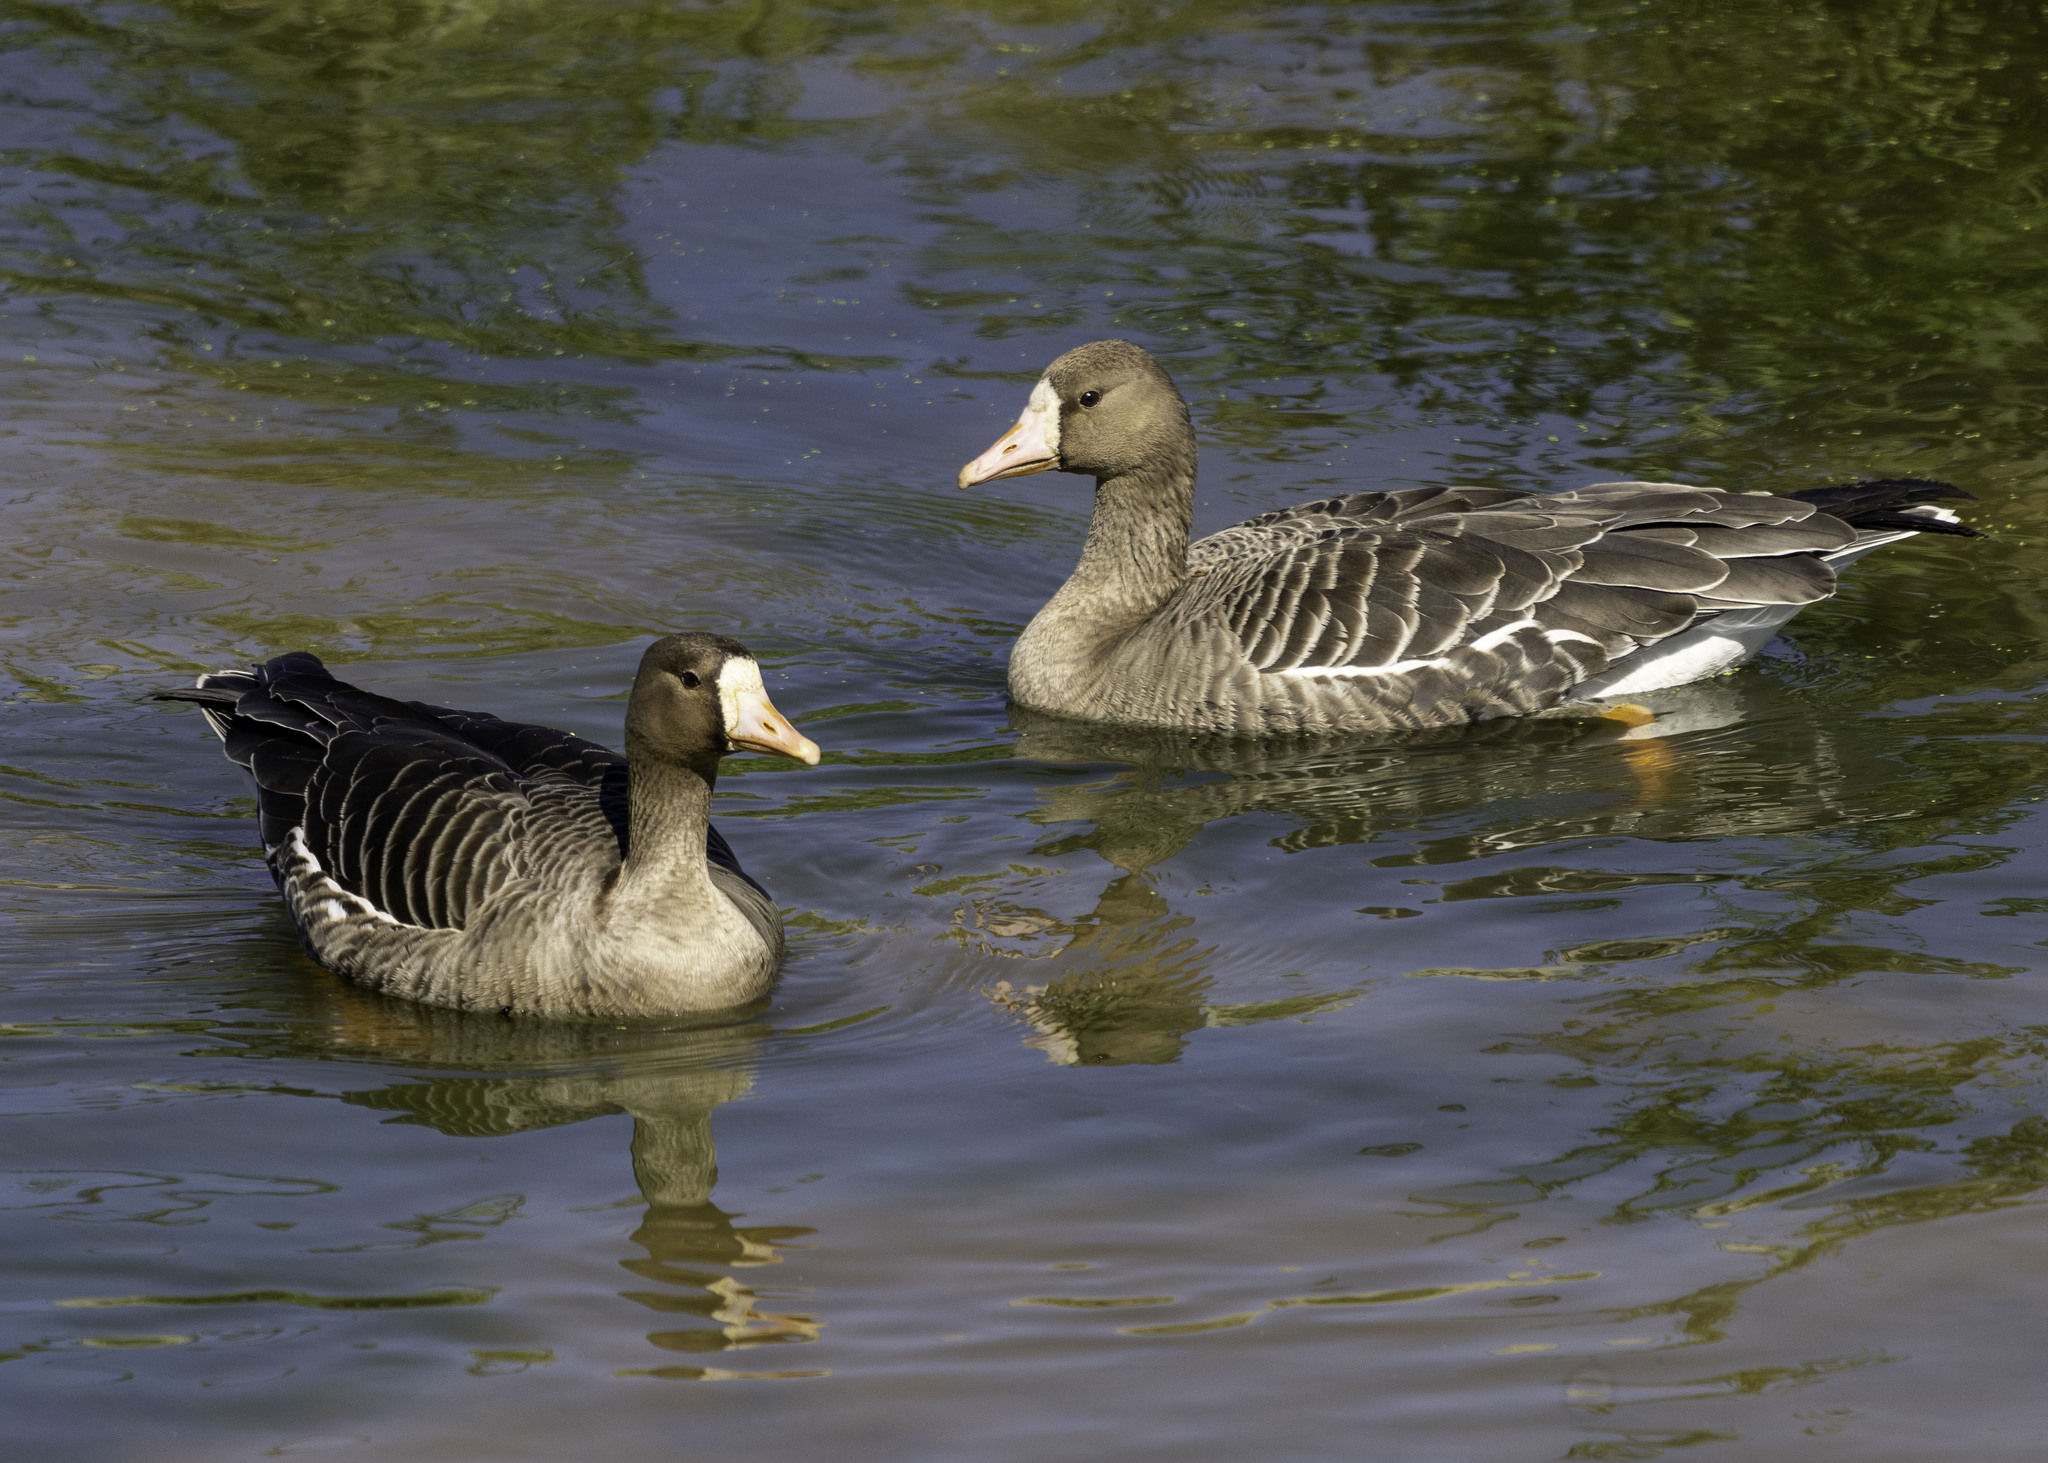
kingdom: Animalia
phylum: Chordata
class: Aves
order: Anseriformes
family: Anatidae
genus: Anser
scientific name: Anser albifrons
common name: Greater white-fronted goose
